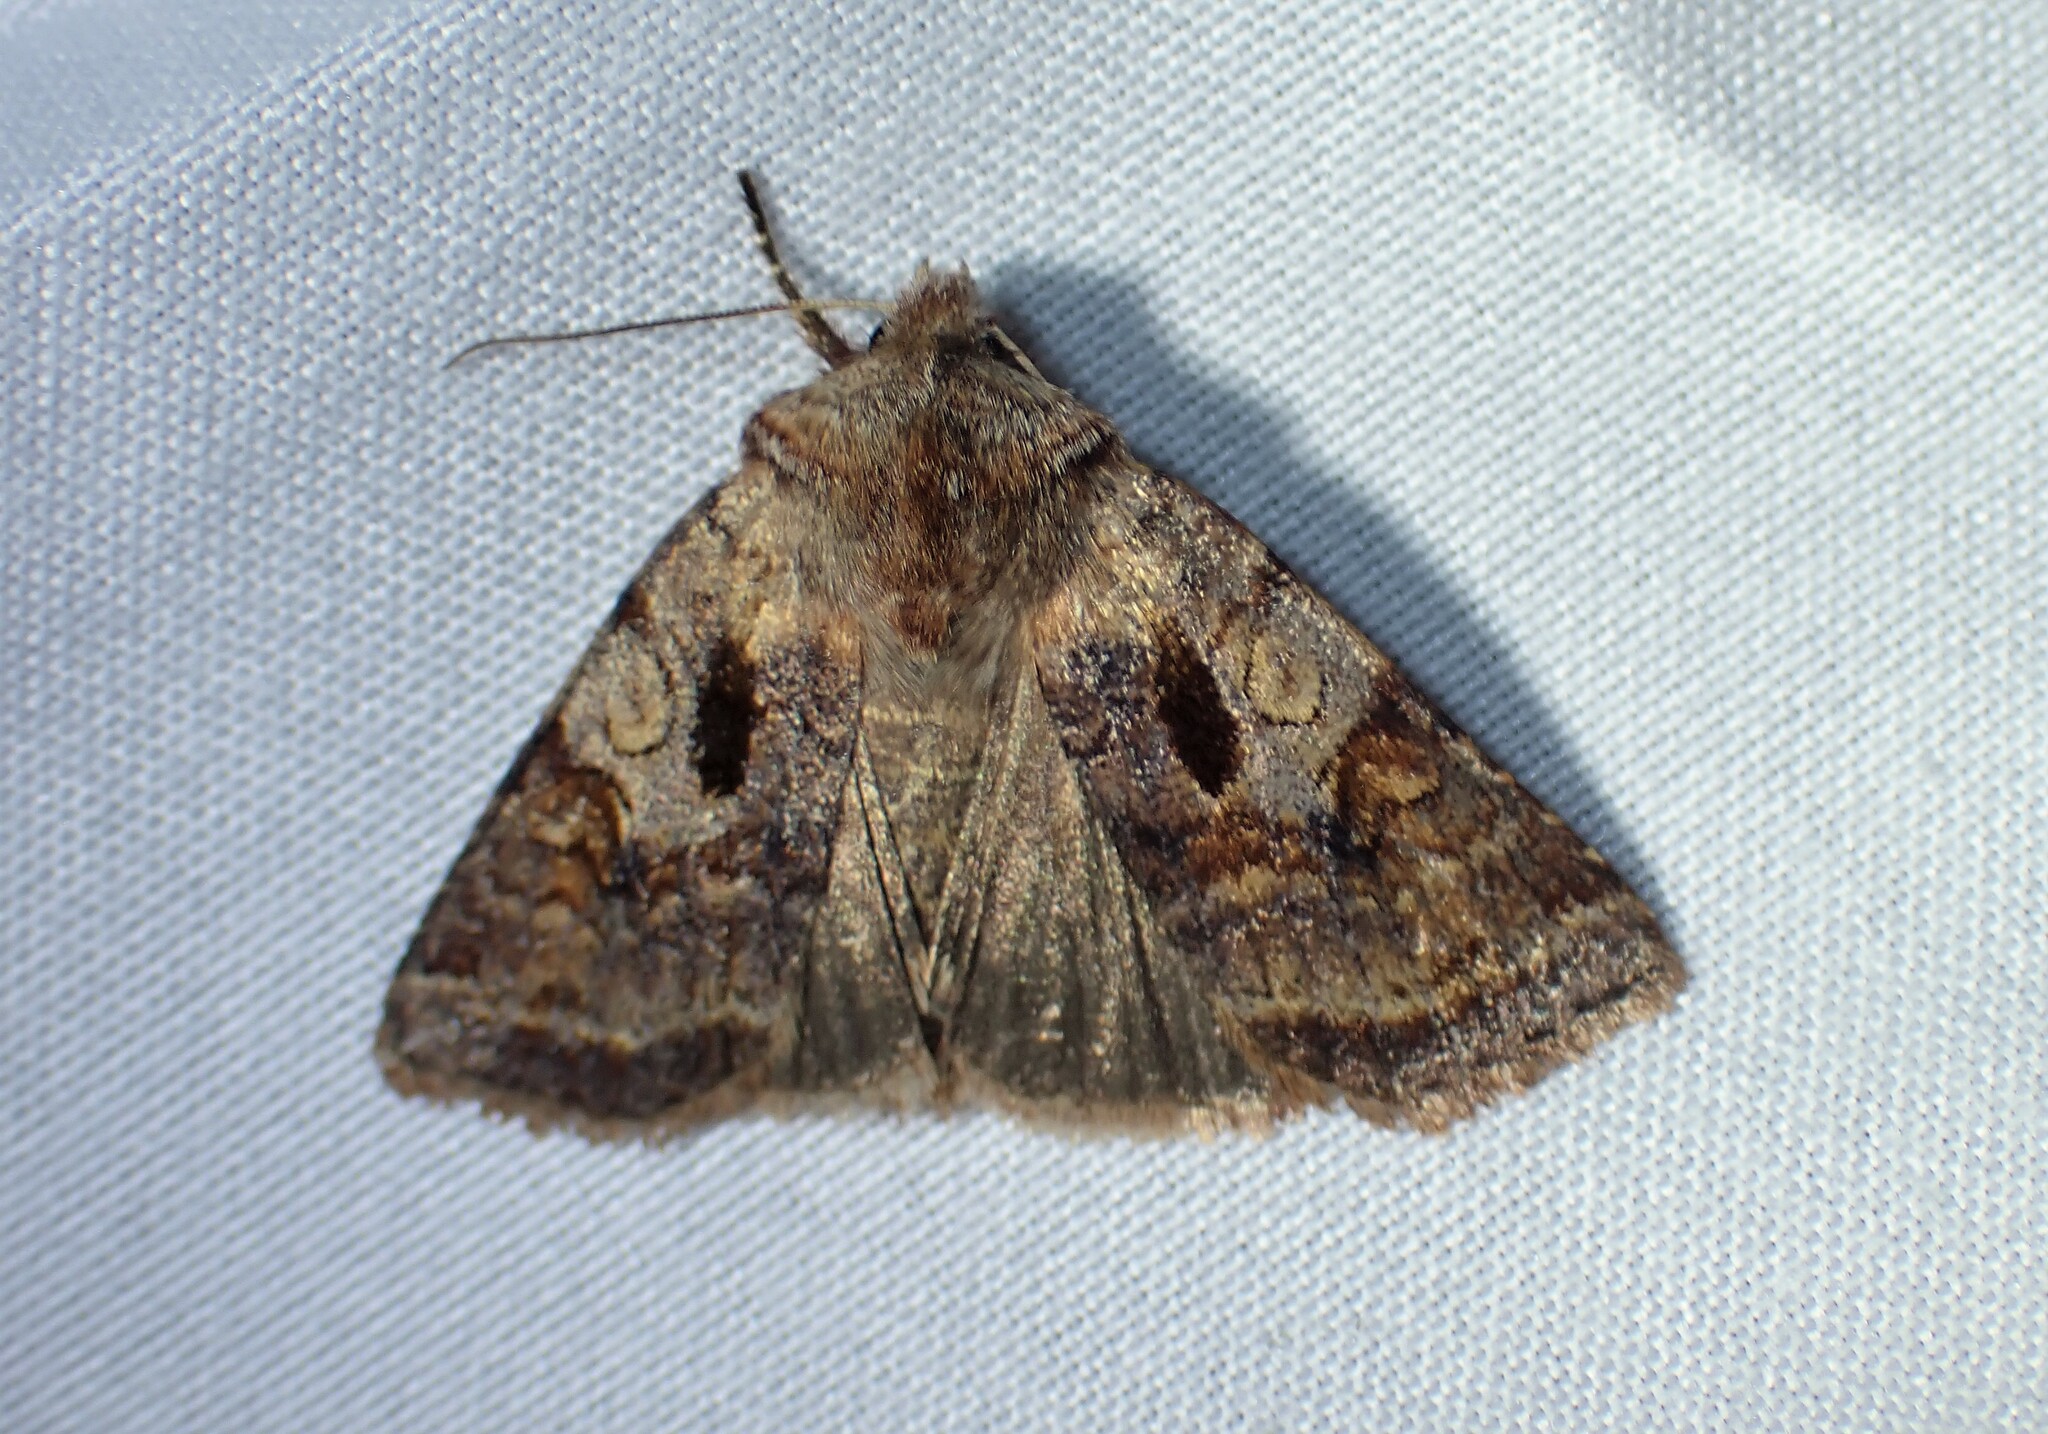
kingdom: Animalia
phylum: Arthropoda
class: Insecta
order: Lepidoptera
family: Noctuidae
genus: Cerastis
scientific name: Cerastis salicarum
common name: Willow dart
